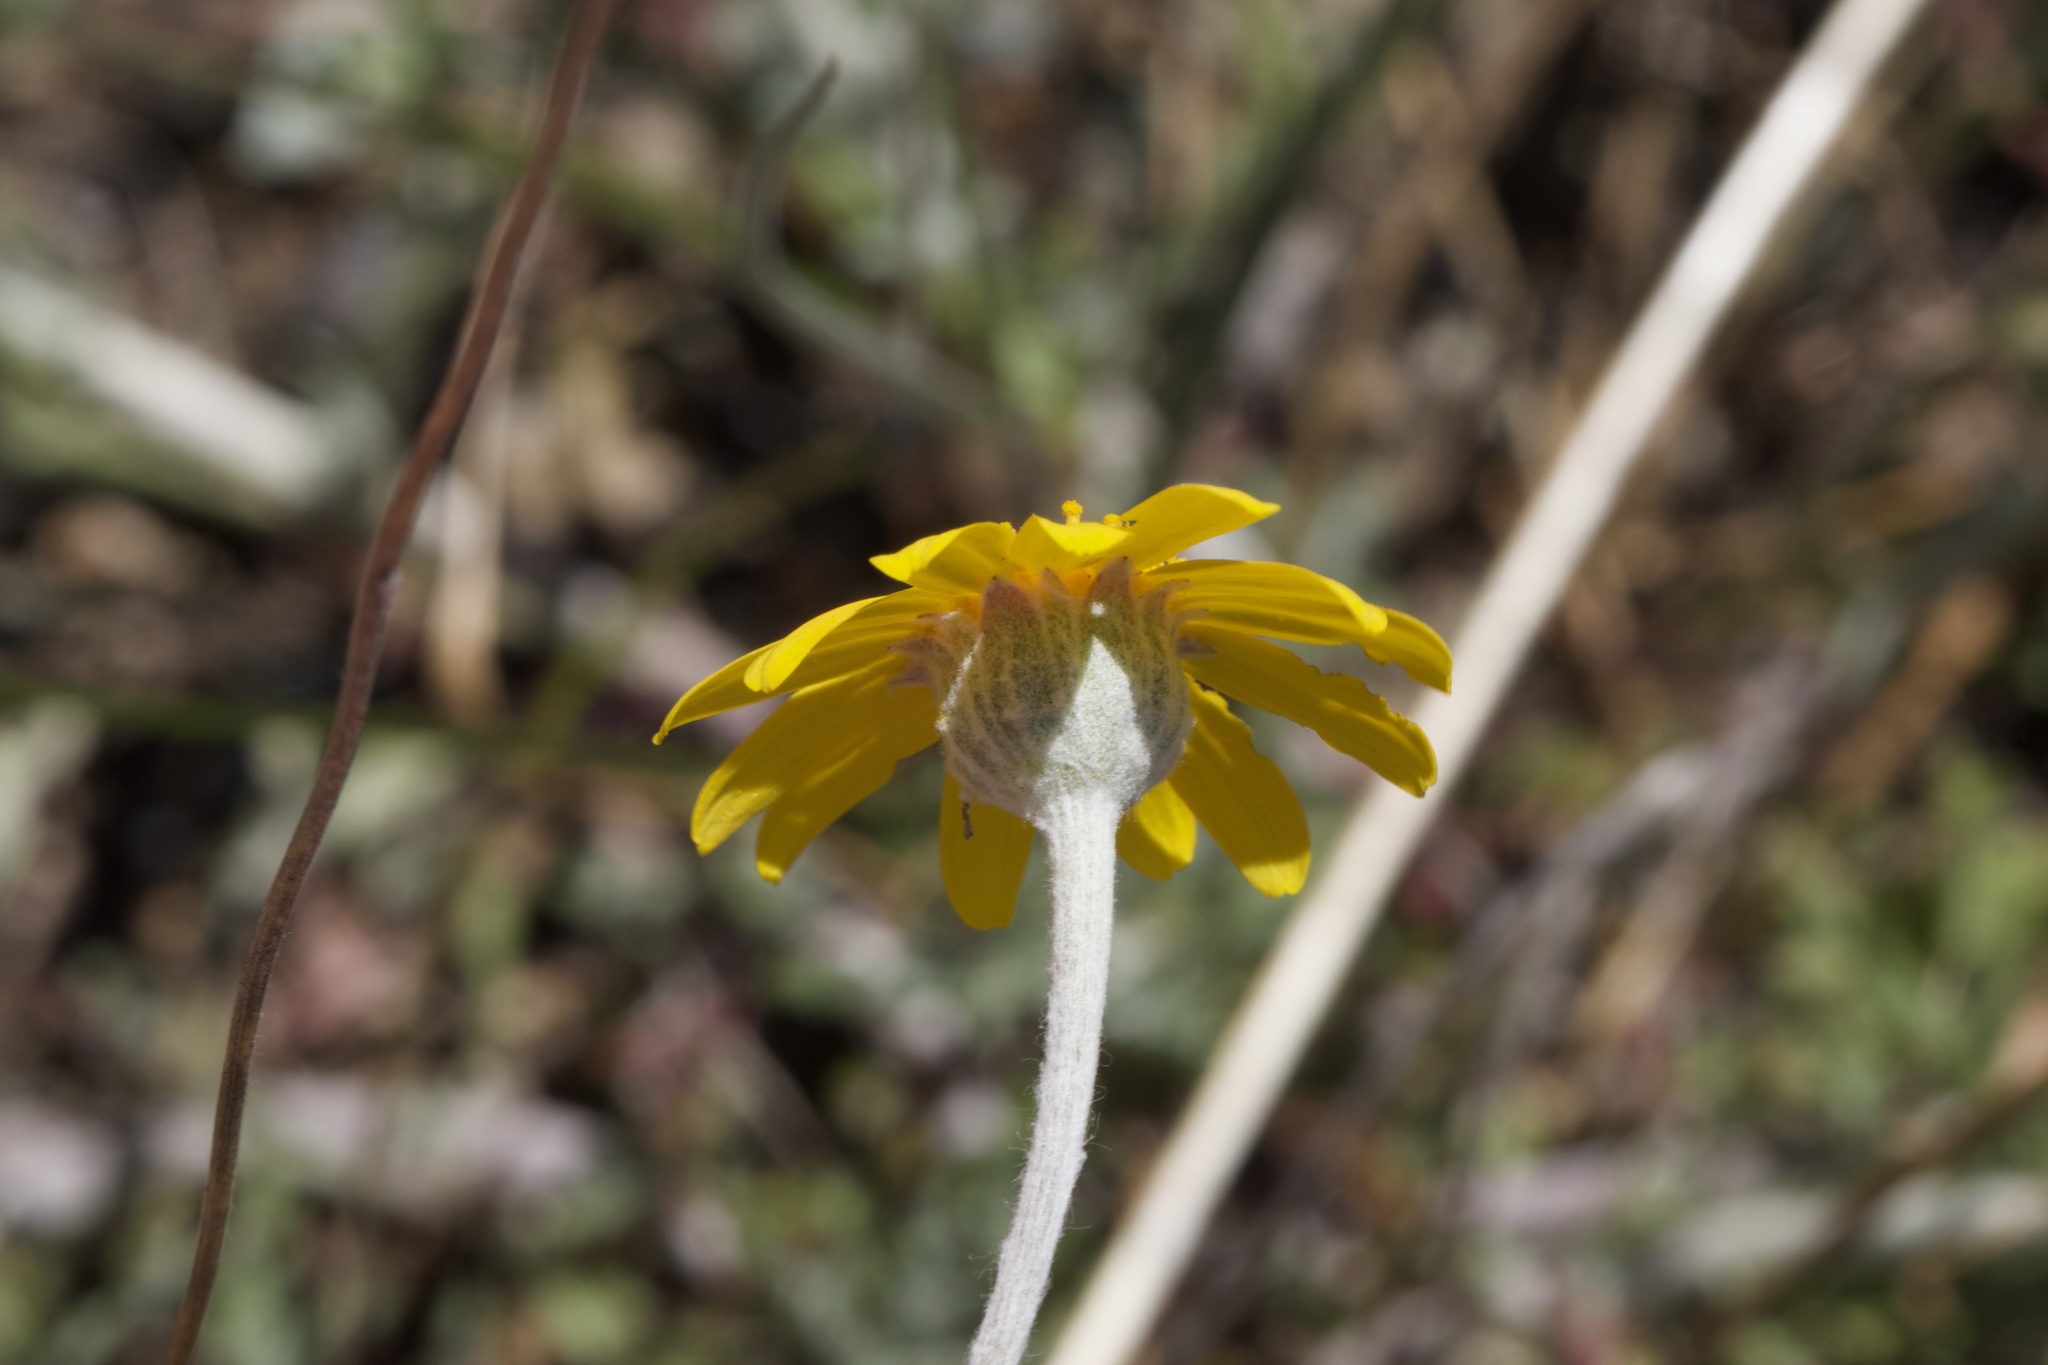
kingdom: Plantae
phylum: Tracheophyta
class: Magnoliopsida
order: Asterales
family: Asteraceae
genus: Eriophyllum
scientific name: Eriophyllum lanatum
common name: Common woolly-sunflower
